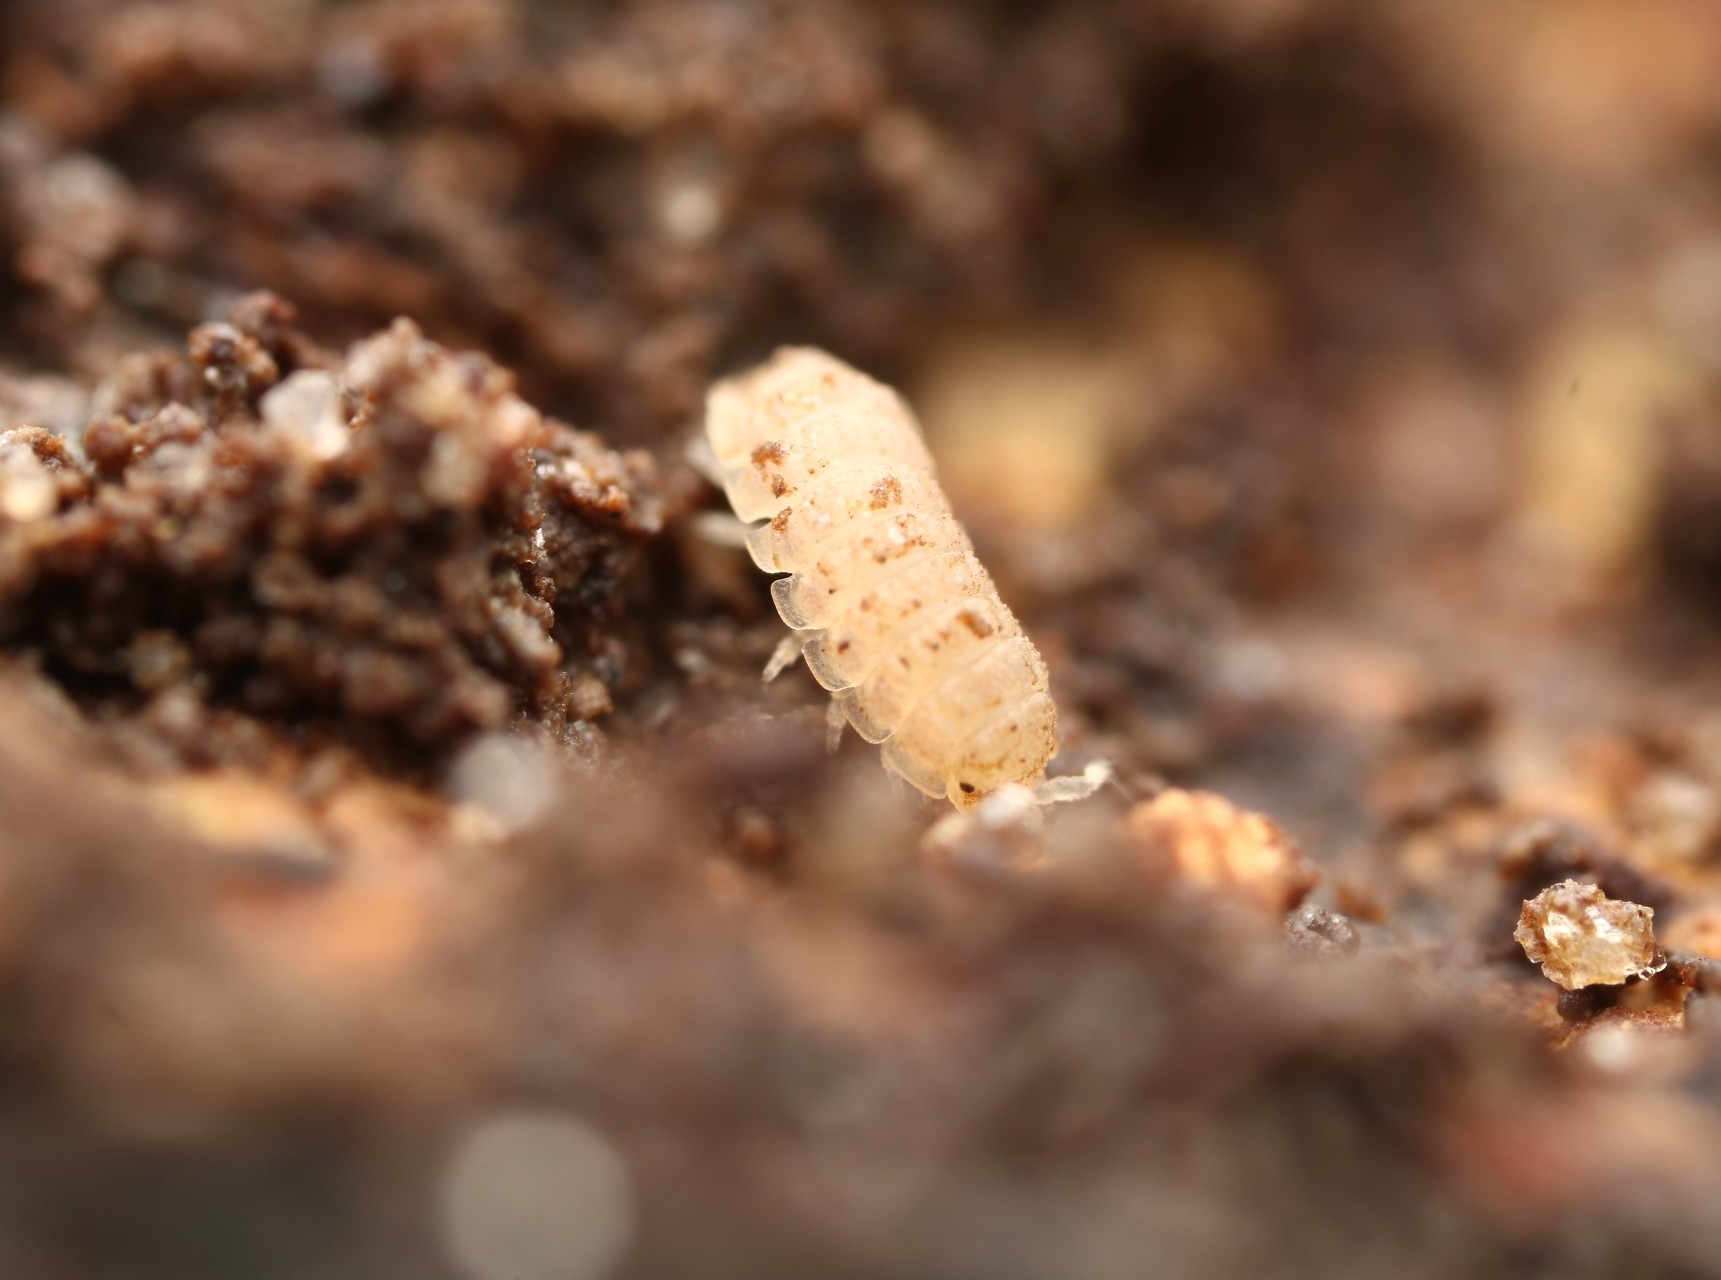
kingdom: Animalia
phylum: Arthropoda
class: Malacostraca
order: Isopoda
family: Trichoniscidae
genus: Haplophthalmus
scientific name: Haplophthalmus danicus
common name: Pillbug
